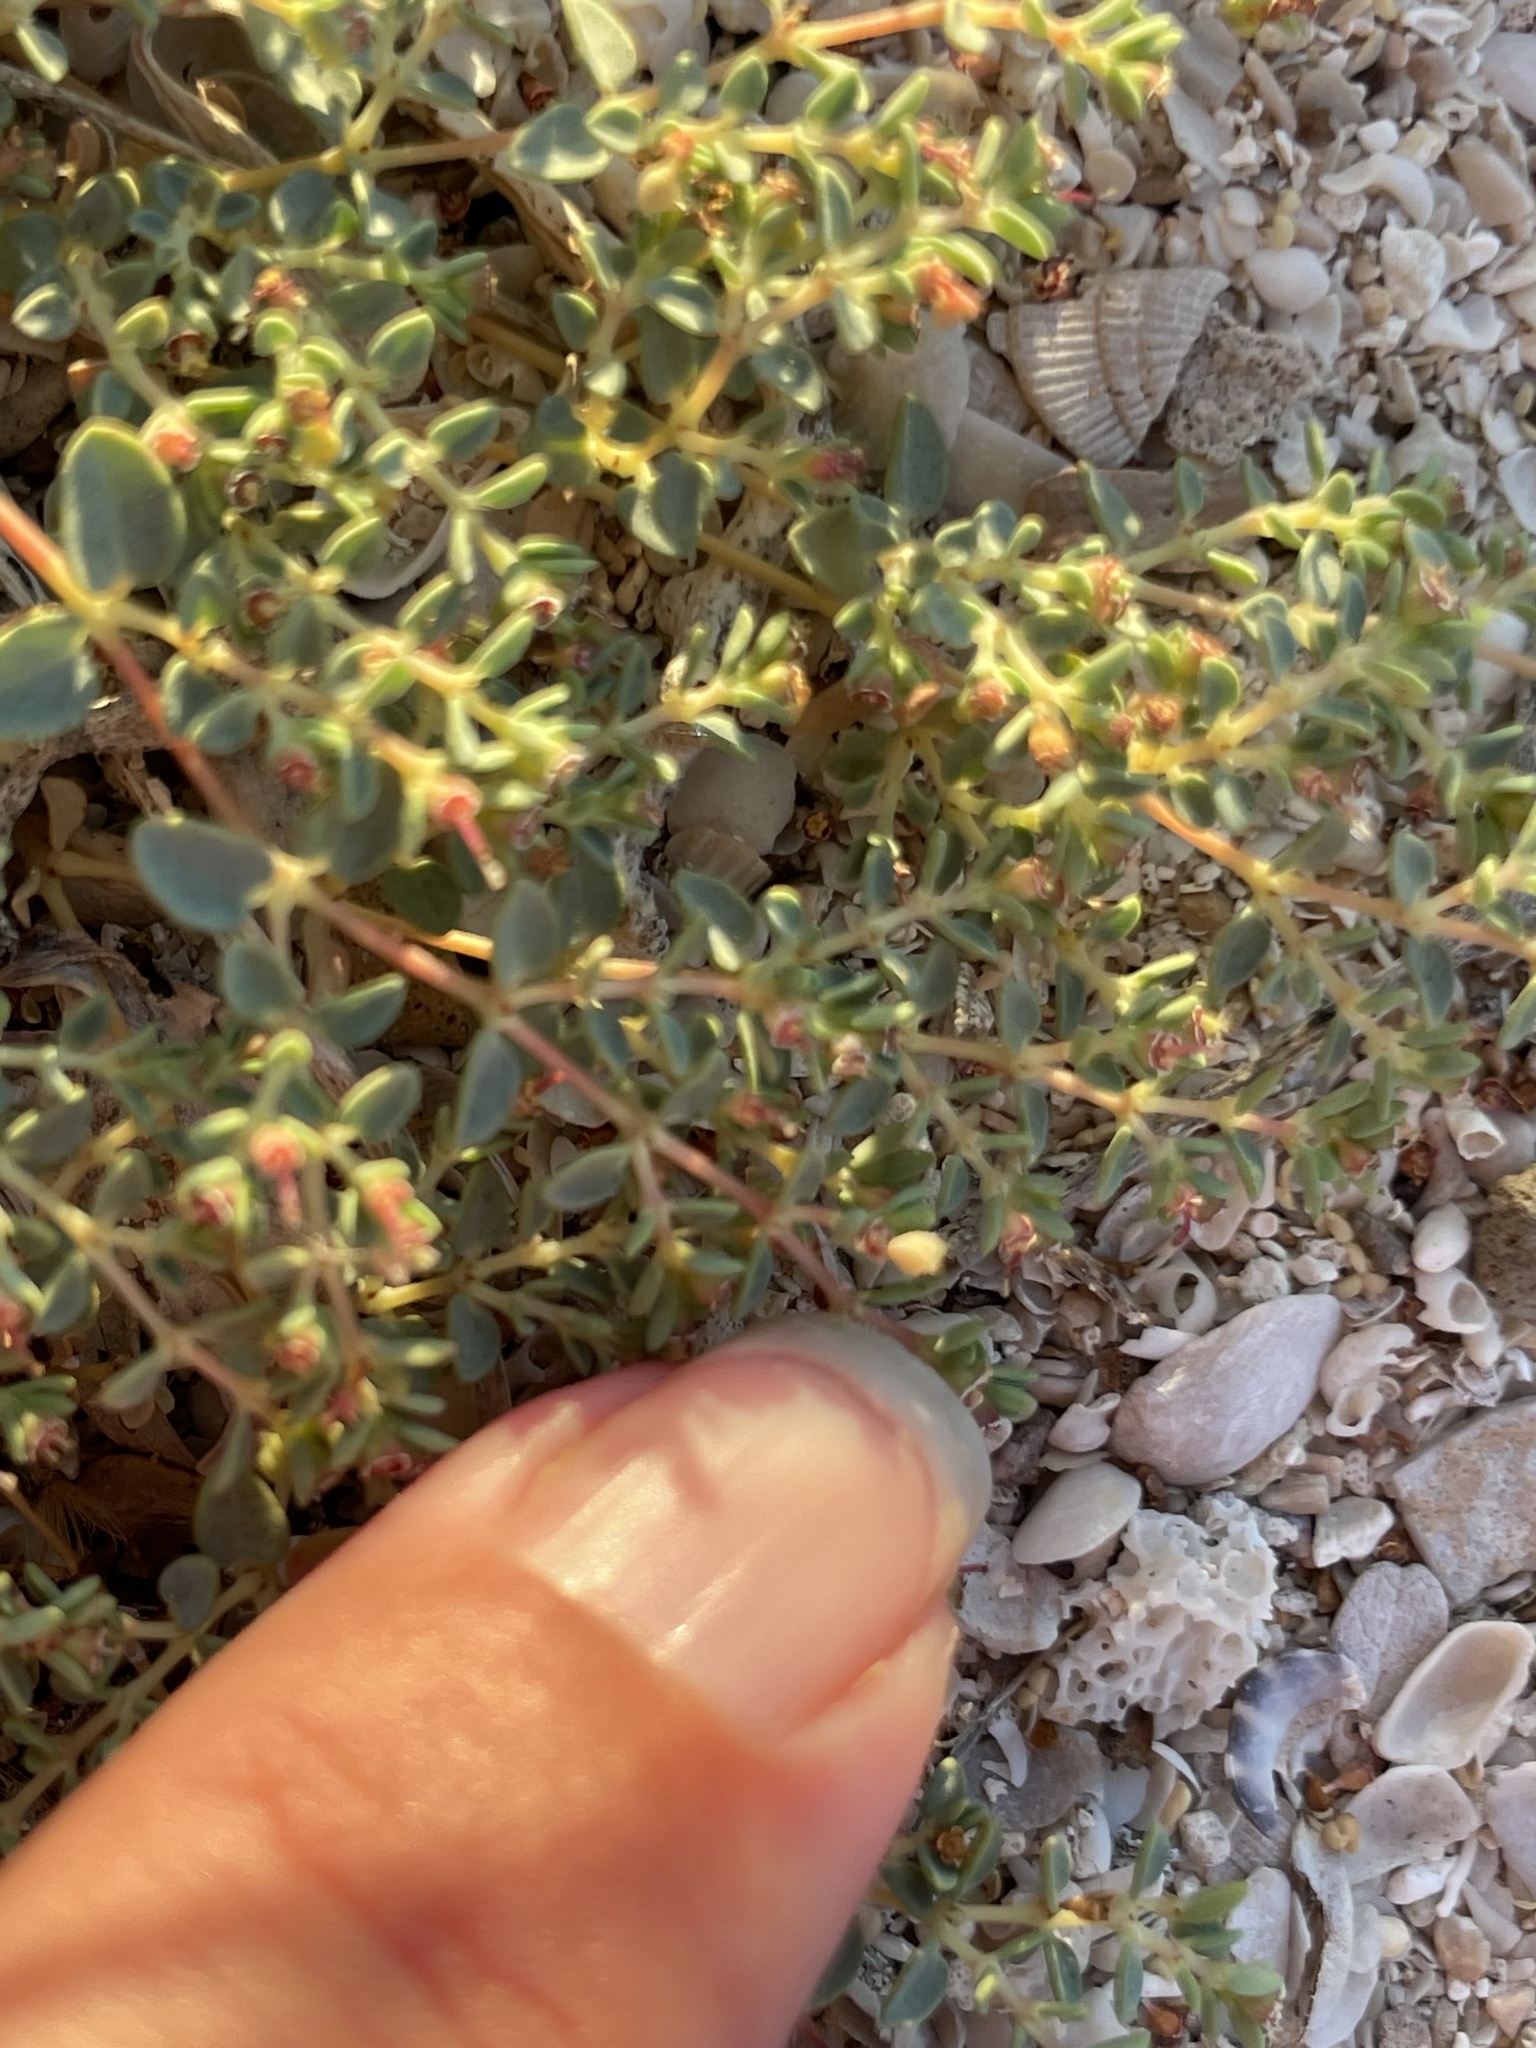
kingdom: Plantae
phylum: Tracheophyta
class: Magnoliopsida
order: Malpighiales
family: Euphorbiaceae
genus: Euphorbia
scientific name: Euphorbia polycarpa
